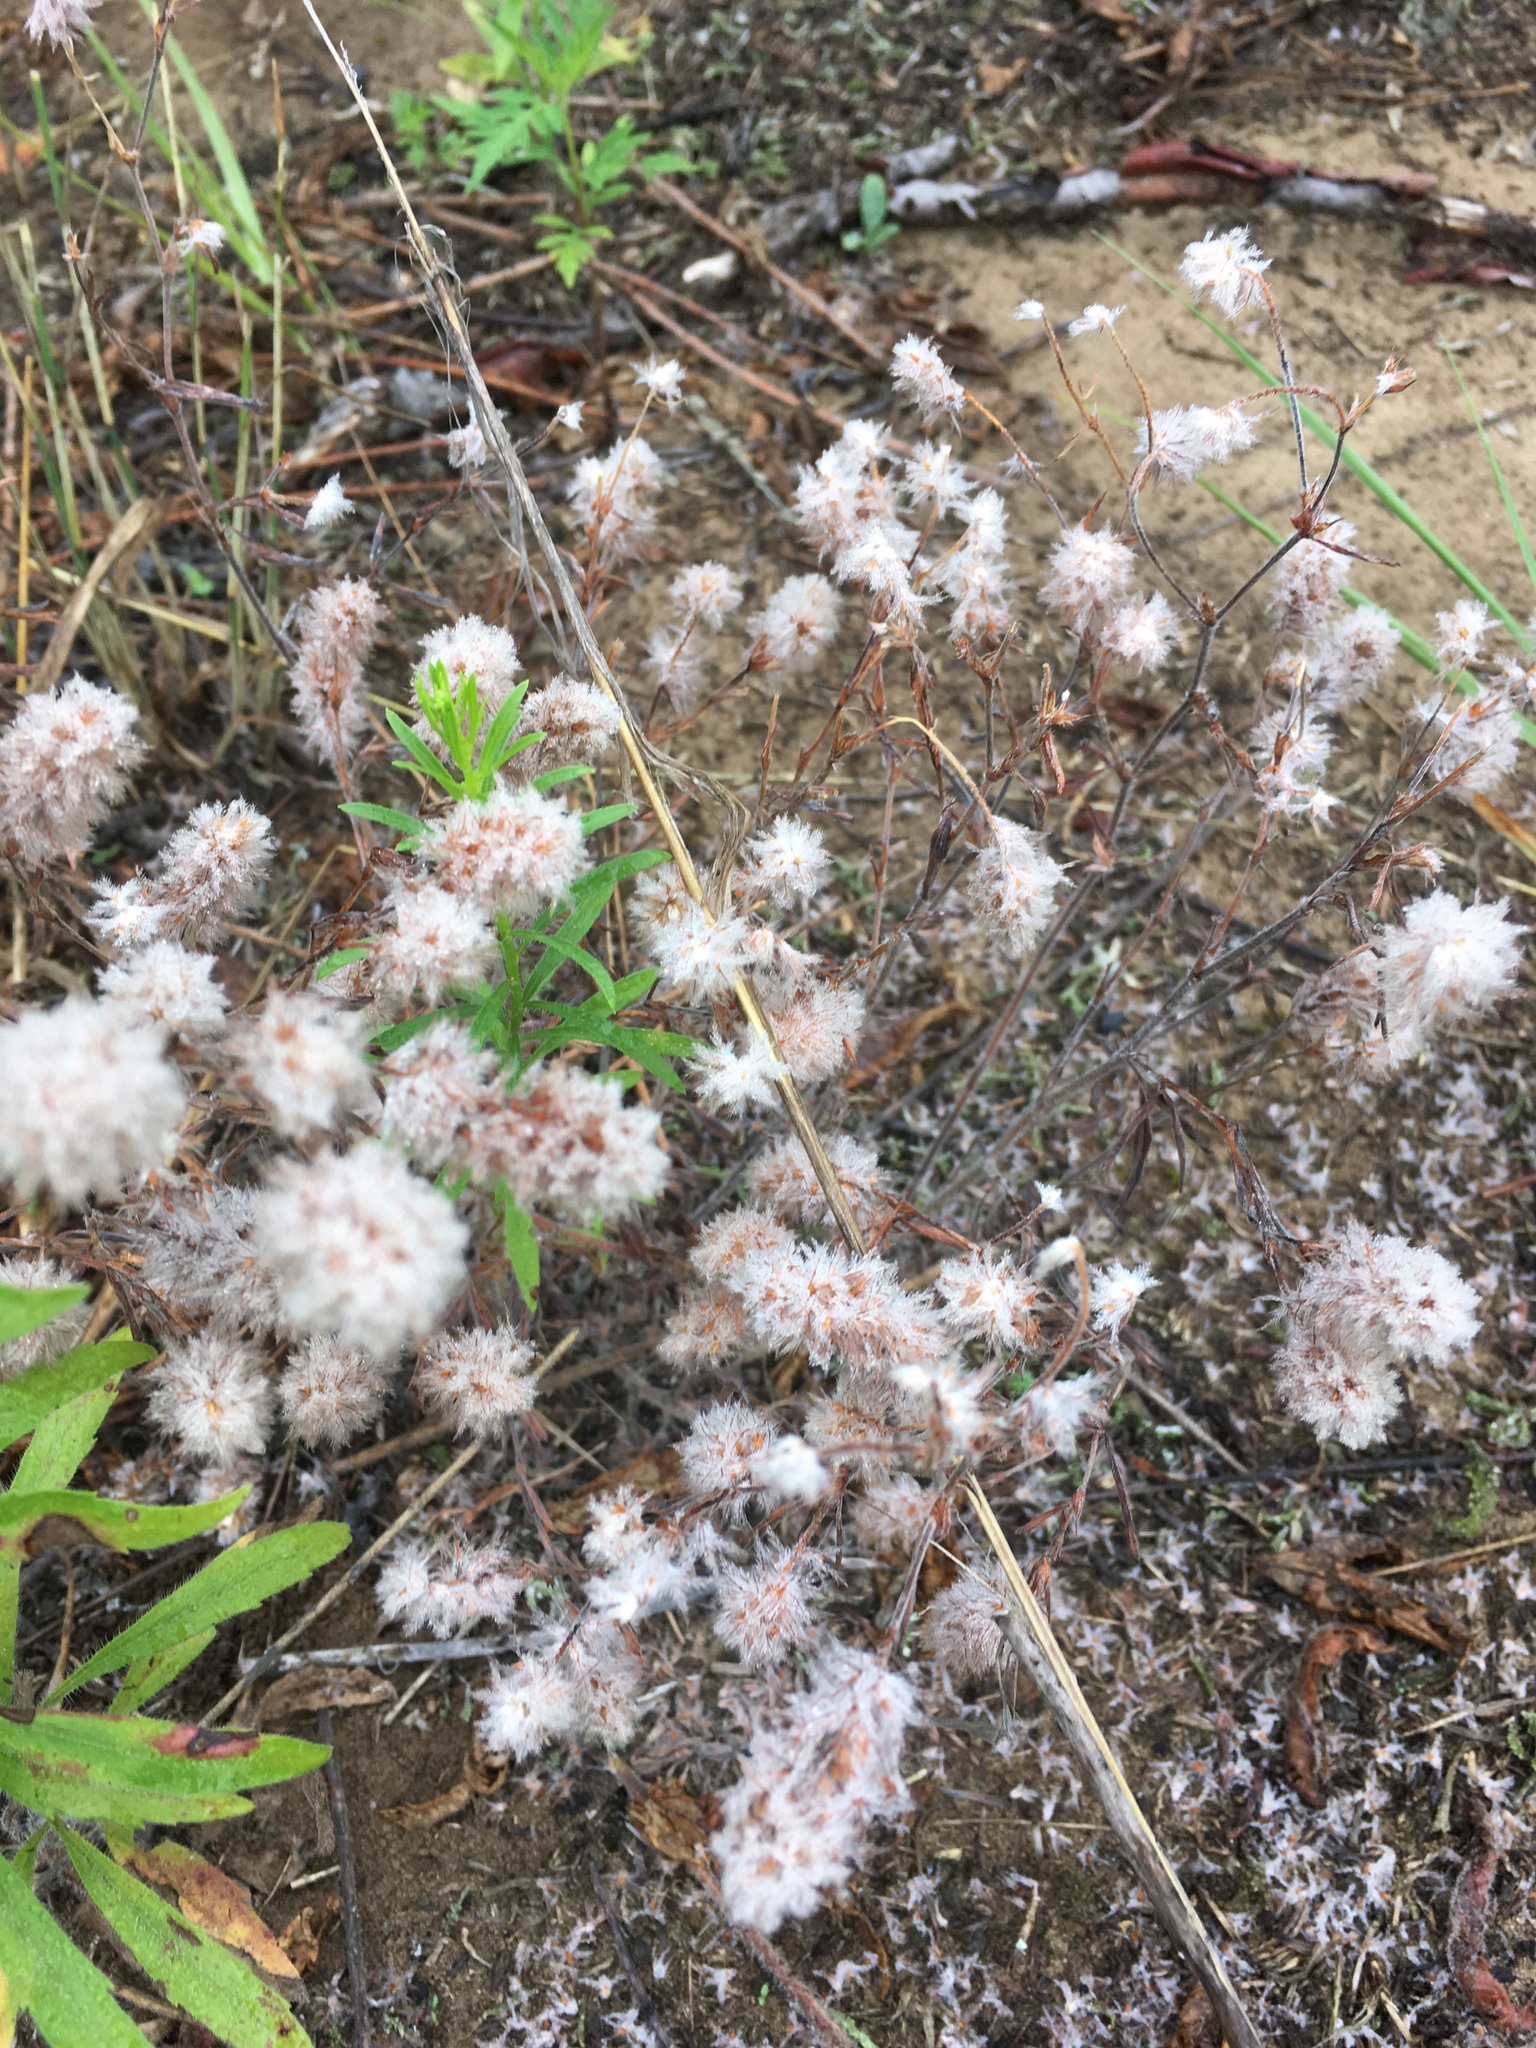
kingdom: Plantae
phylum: Tracheophyta
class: Magnoliopsida
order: Fabales
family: Fabaceae
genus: Trifolium
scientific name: Trifolium arvense
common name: Hare's-foot clover
